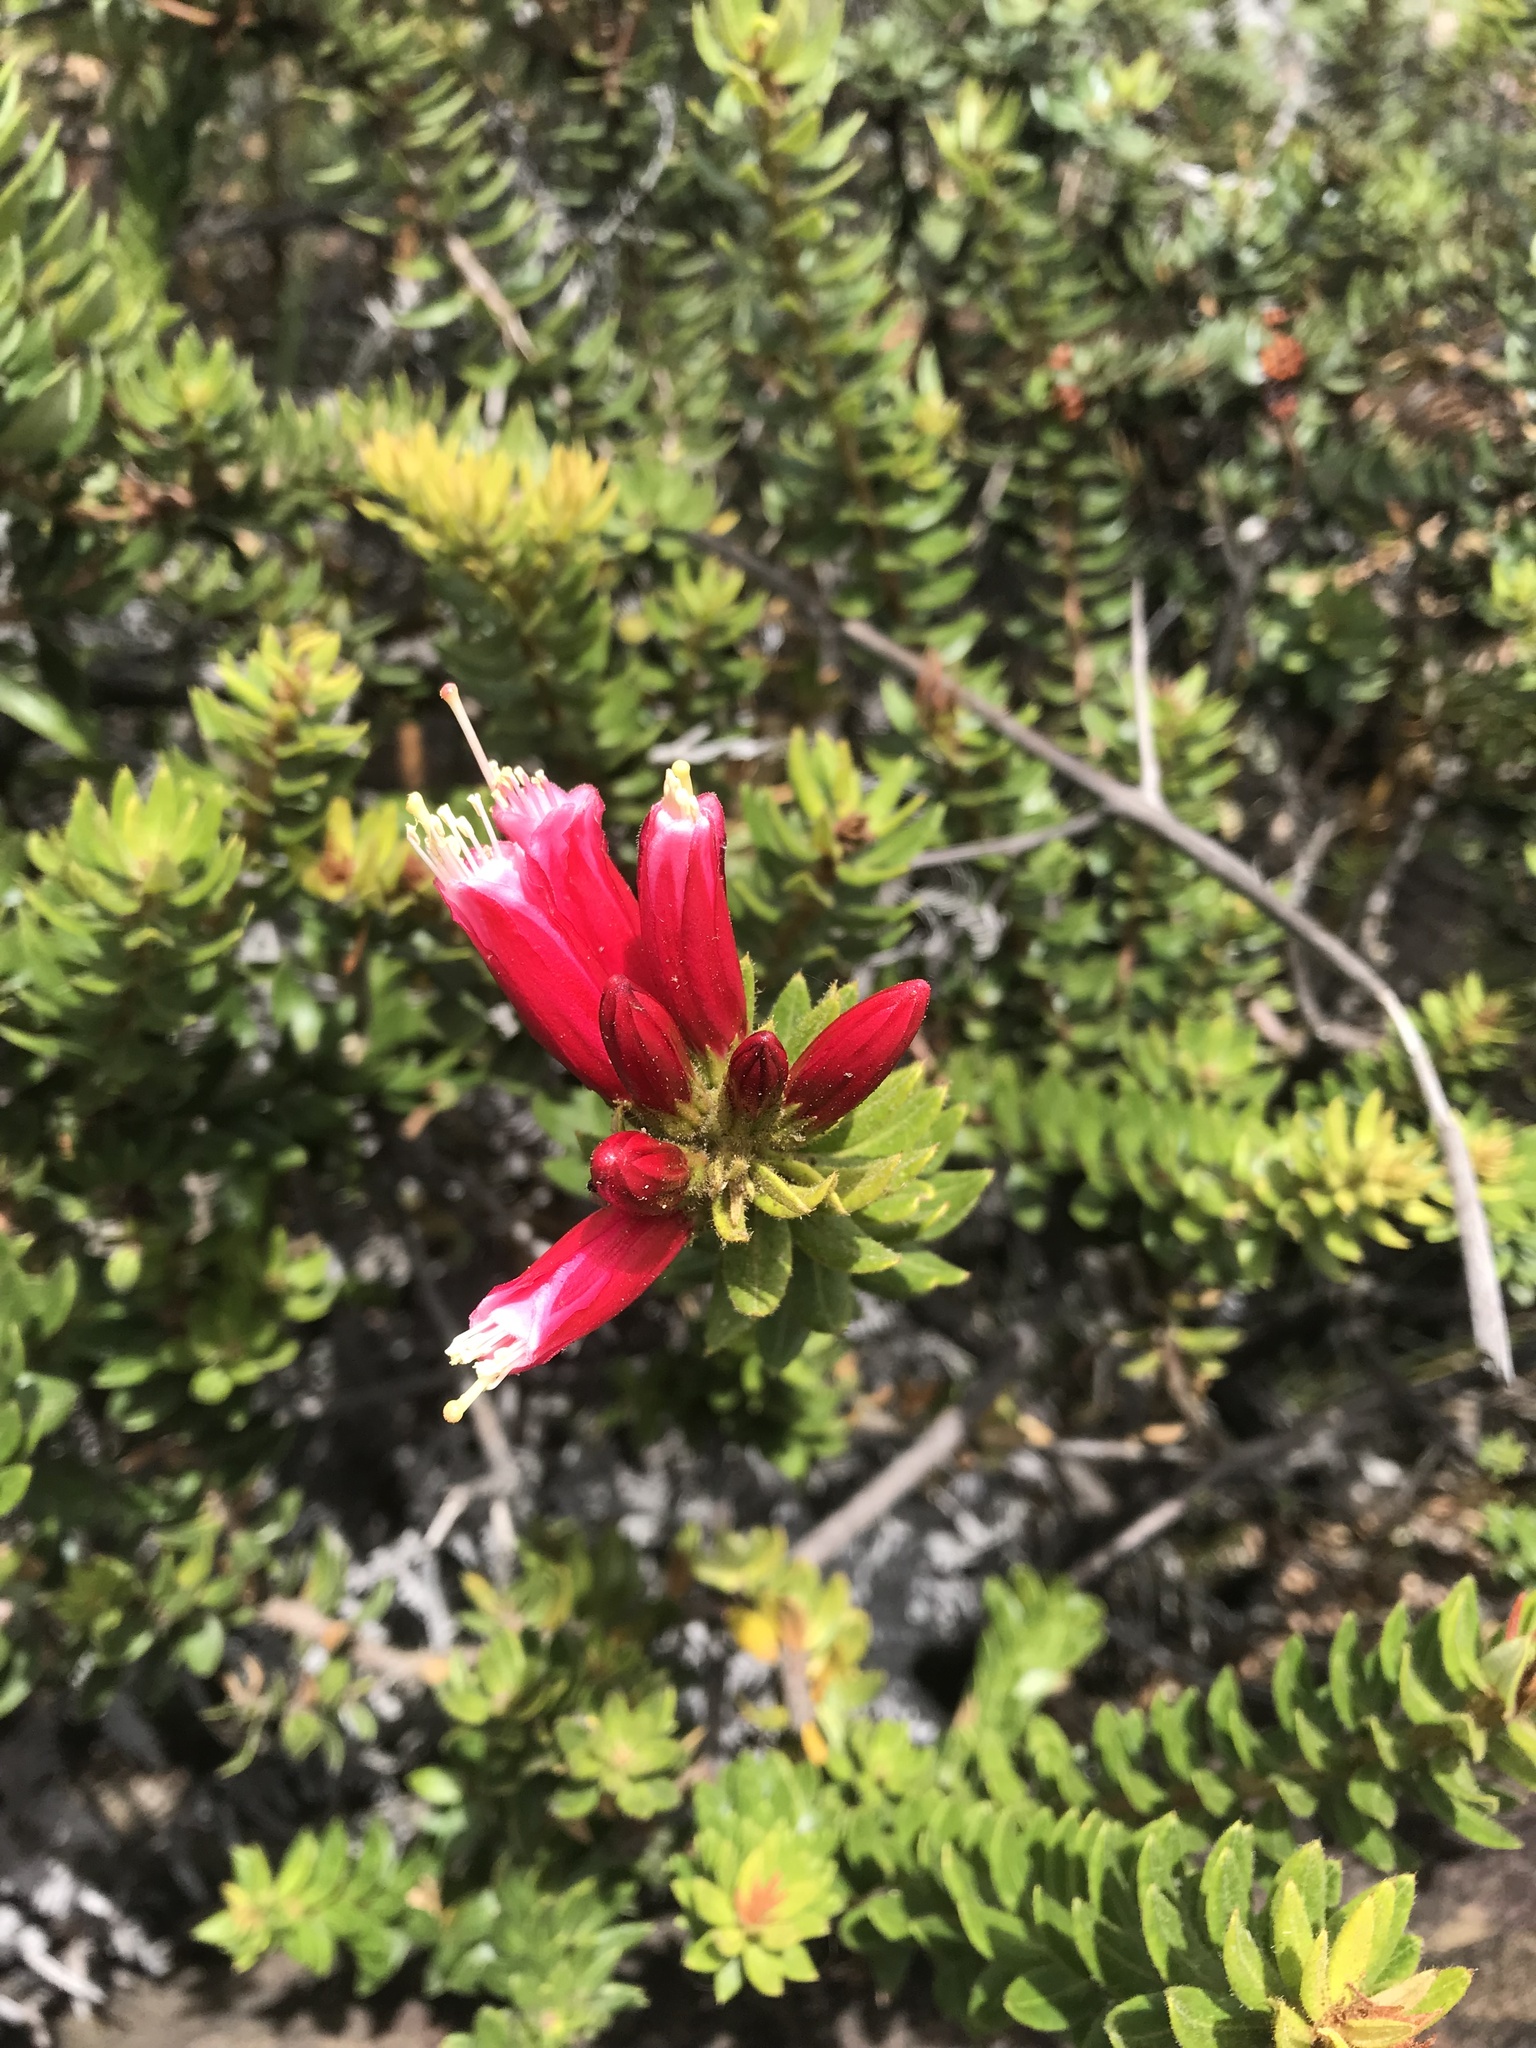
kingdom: Plantae
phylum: Tracheophyta
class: Magnoliopsida
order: Ericales
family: Ericaceae
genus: Bejaria
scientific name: Bejaria resinosa
